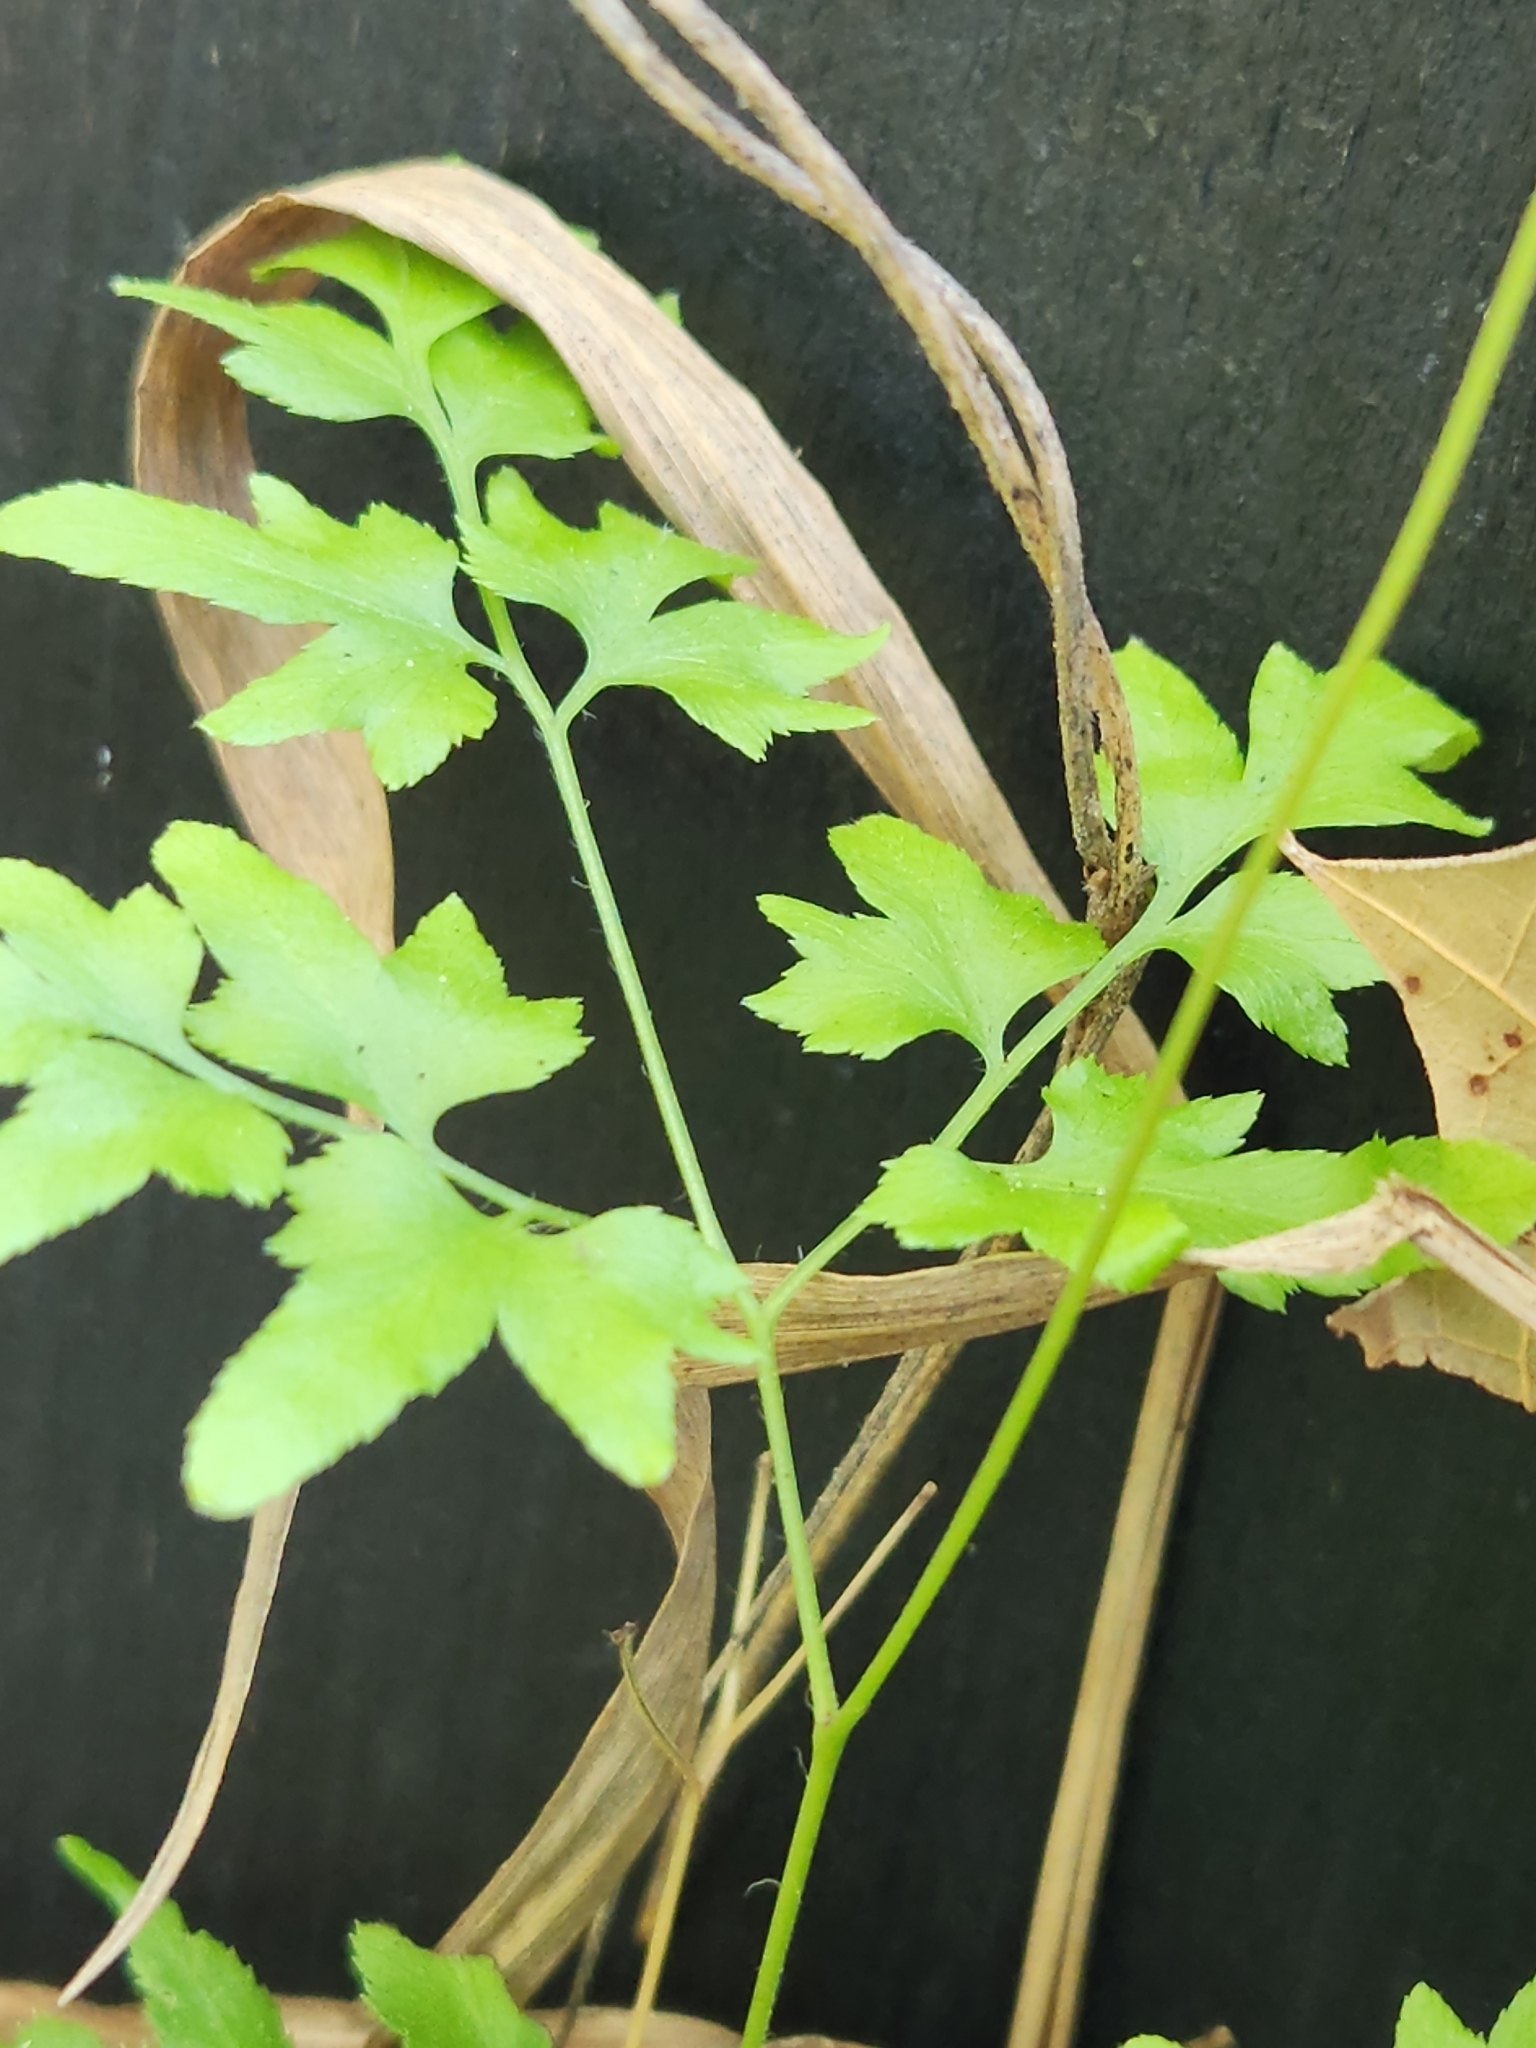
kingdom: Plantae
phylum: Tracheophyta
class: Polypodiopsida
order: Schizaeales
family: Lygodiaceae
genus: Lygodium
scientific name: Lygodium japonicum
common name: Japanese climbing fern
